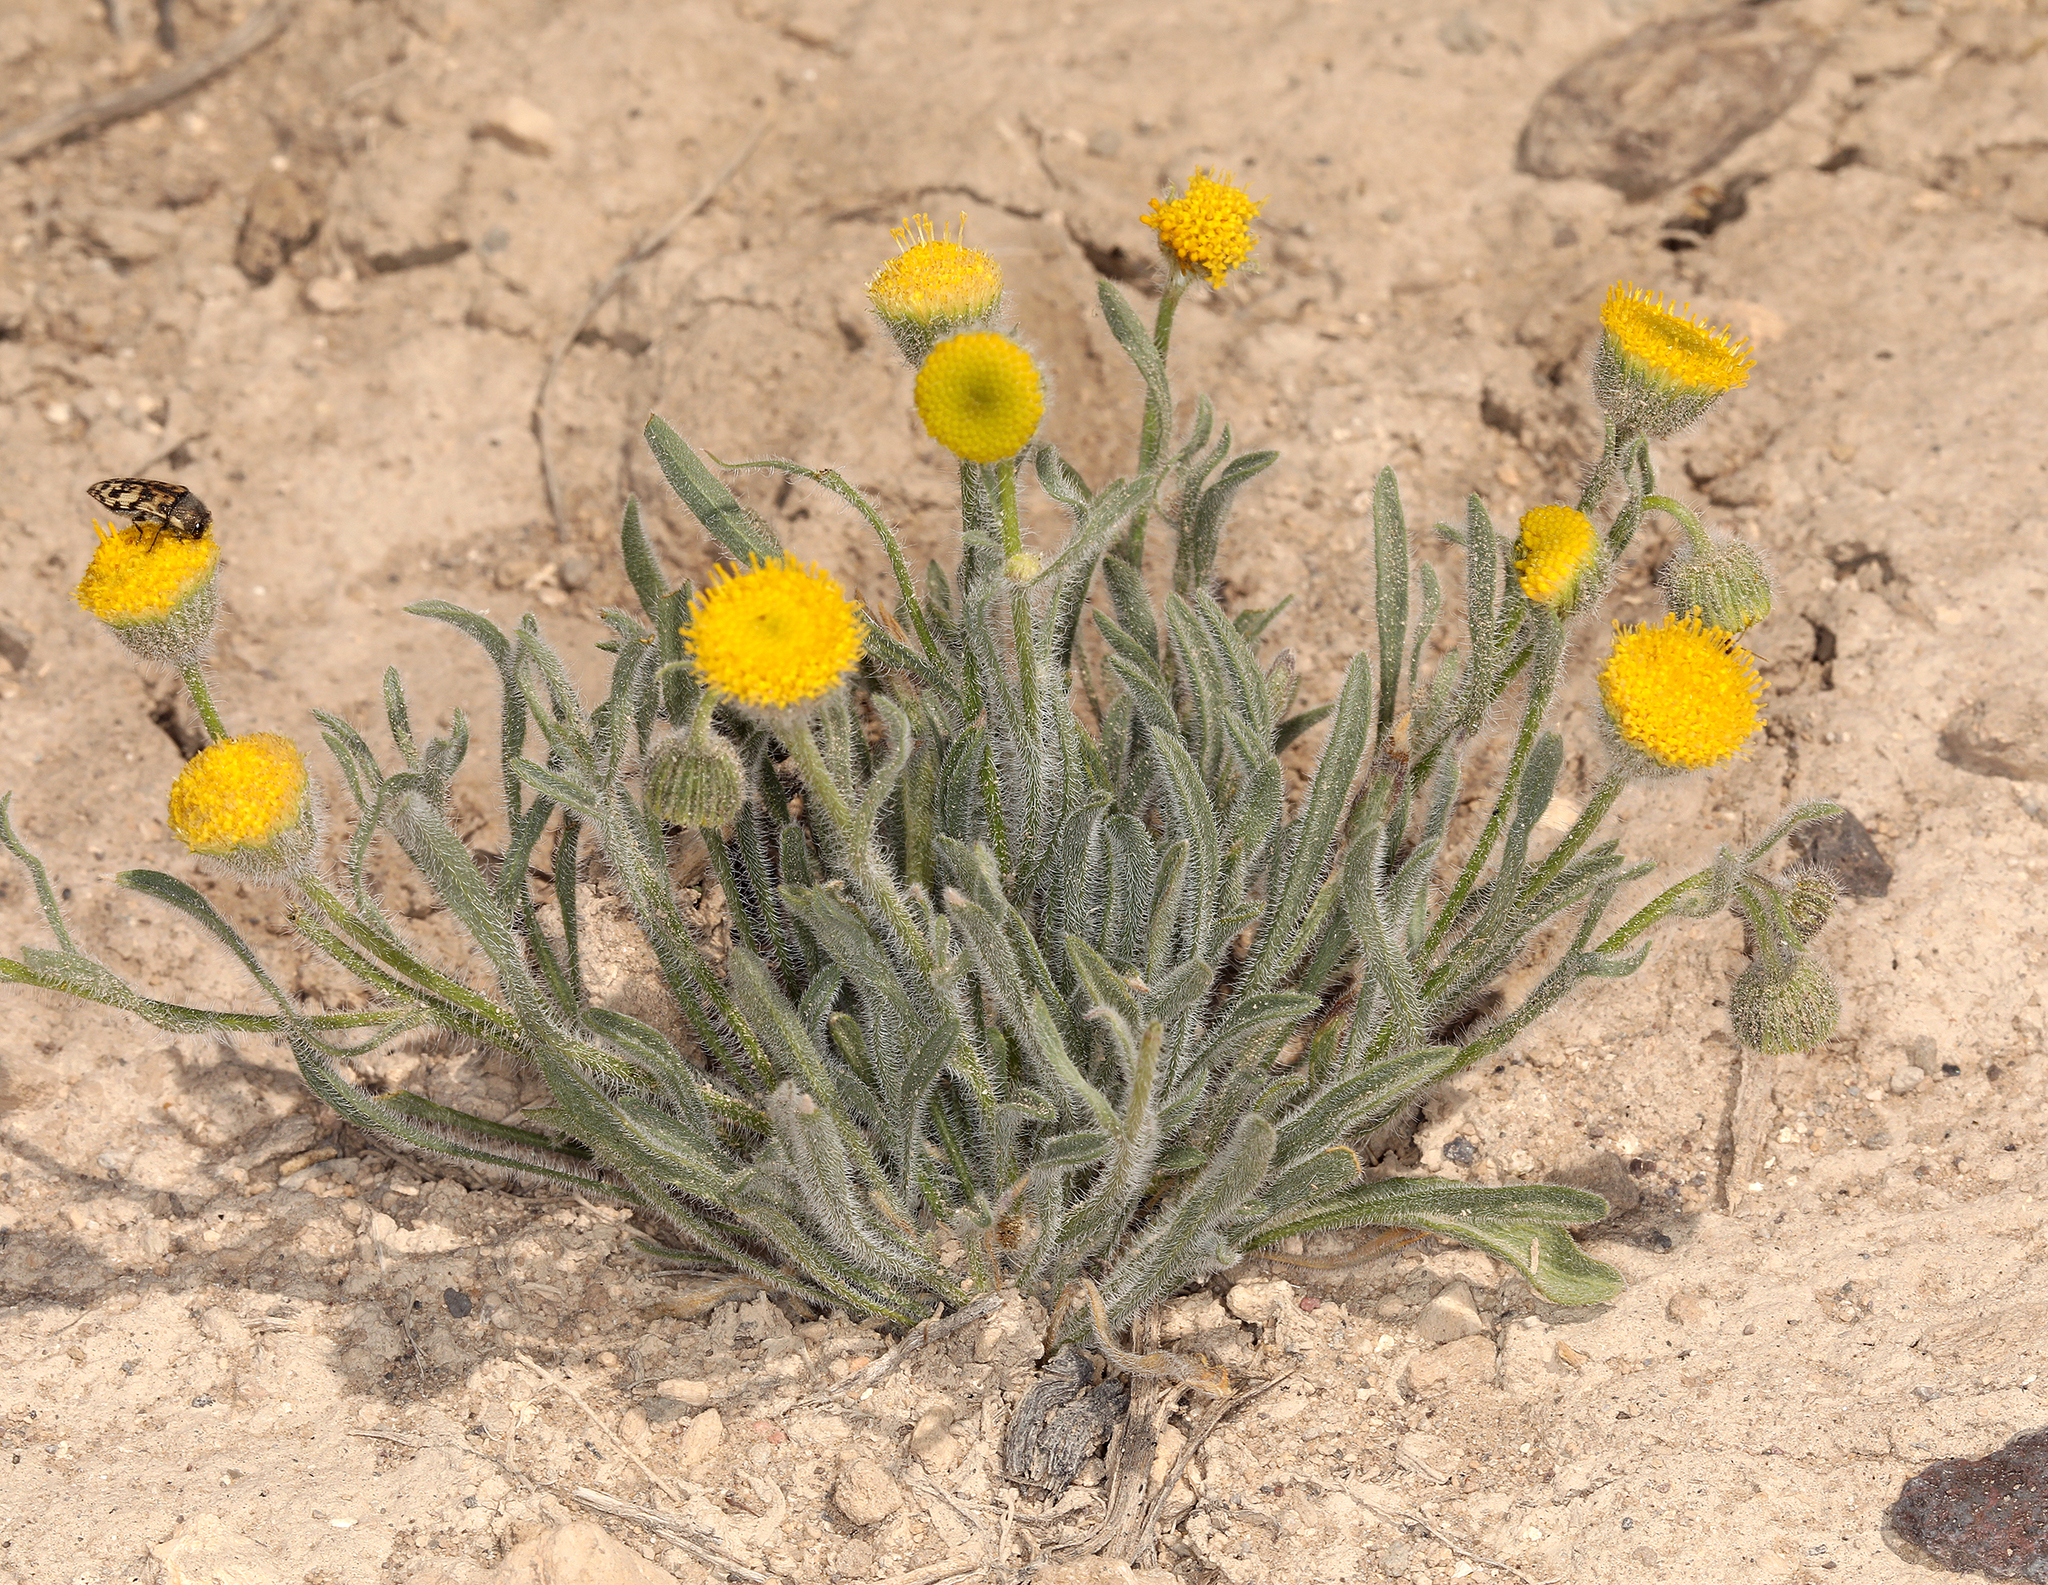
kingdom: Plantae
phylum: Tracheophyta
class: Magnoliopsida
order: Asterales
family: Asteraceae
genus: Erigeron
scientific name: Erigeron aphanactis
